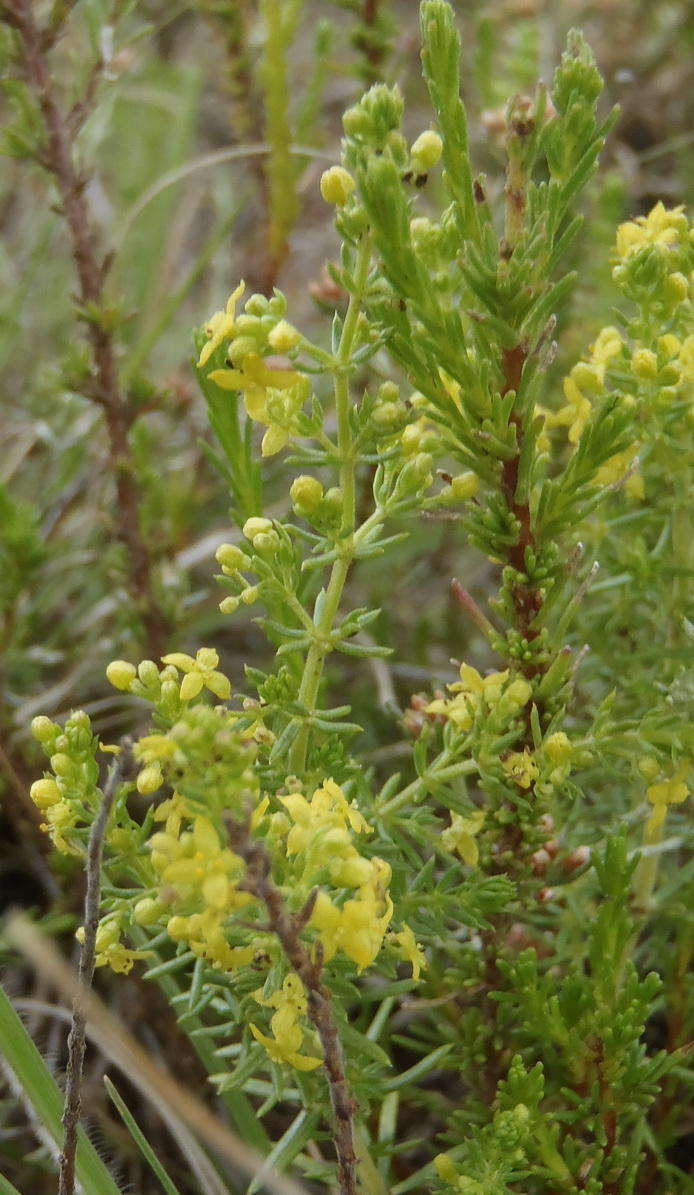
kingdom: Plantae
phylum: Tracheophyta
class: Magnoliopsida
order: Gentianales
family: Rubiaceae
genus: Galium
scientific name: Galium capense
